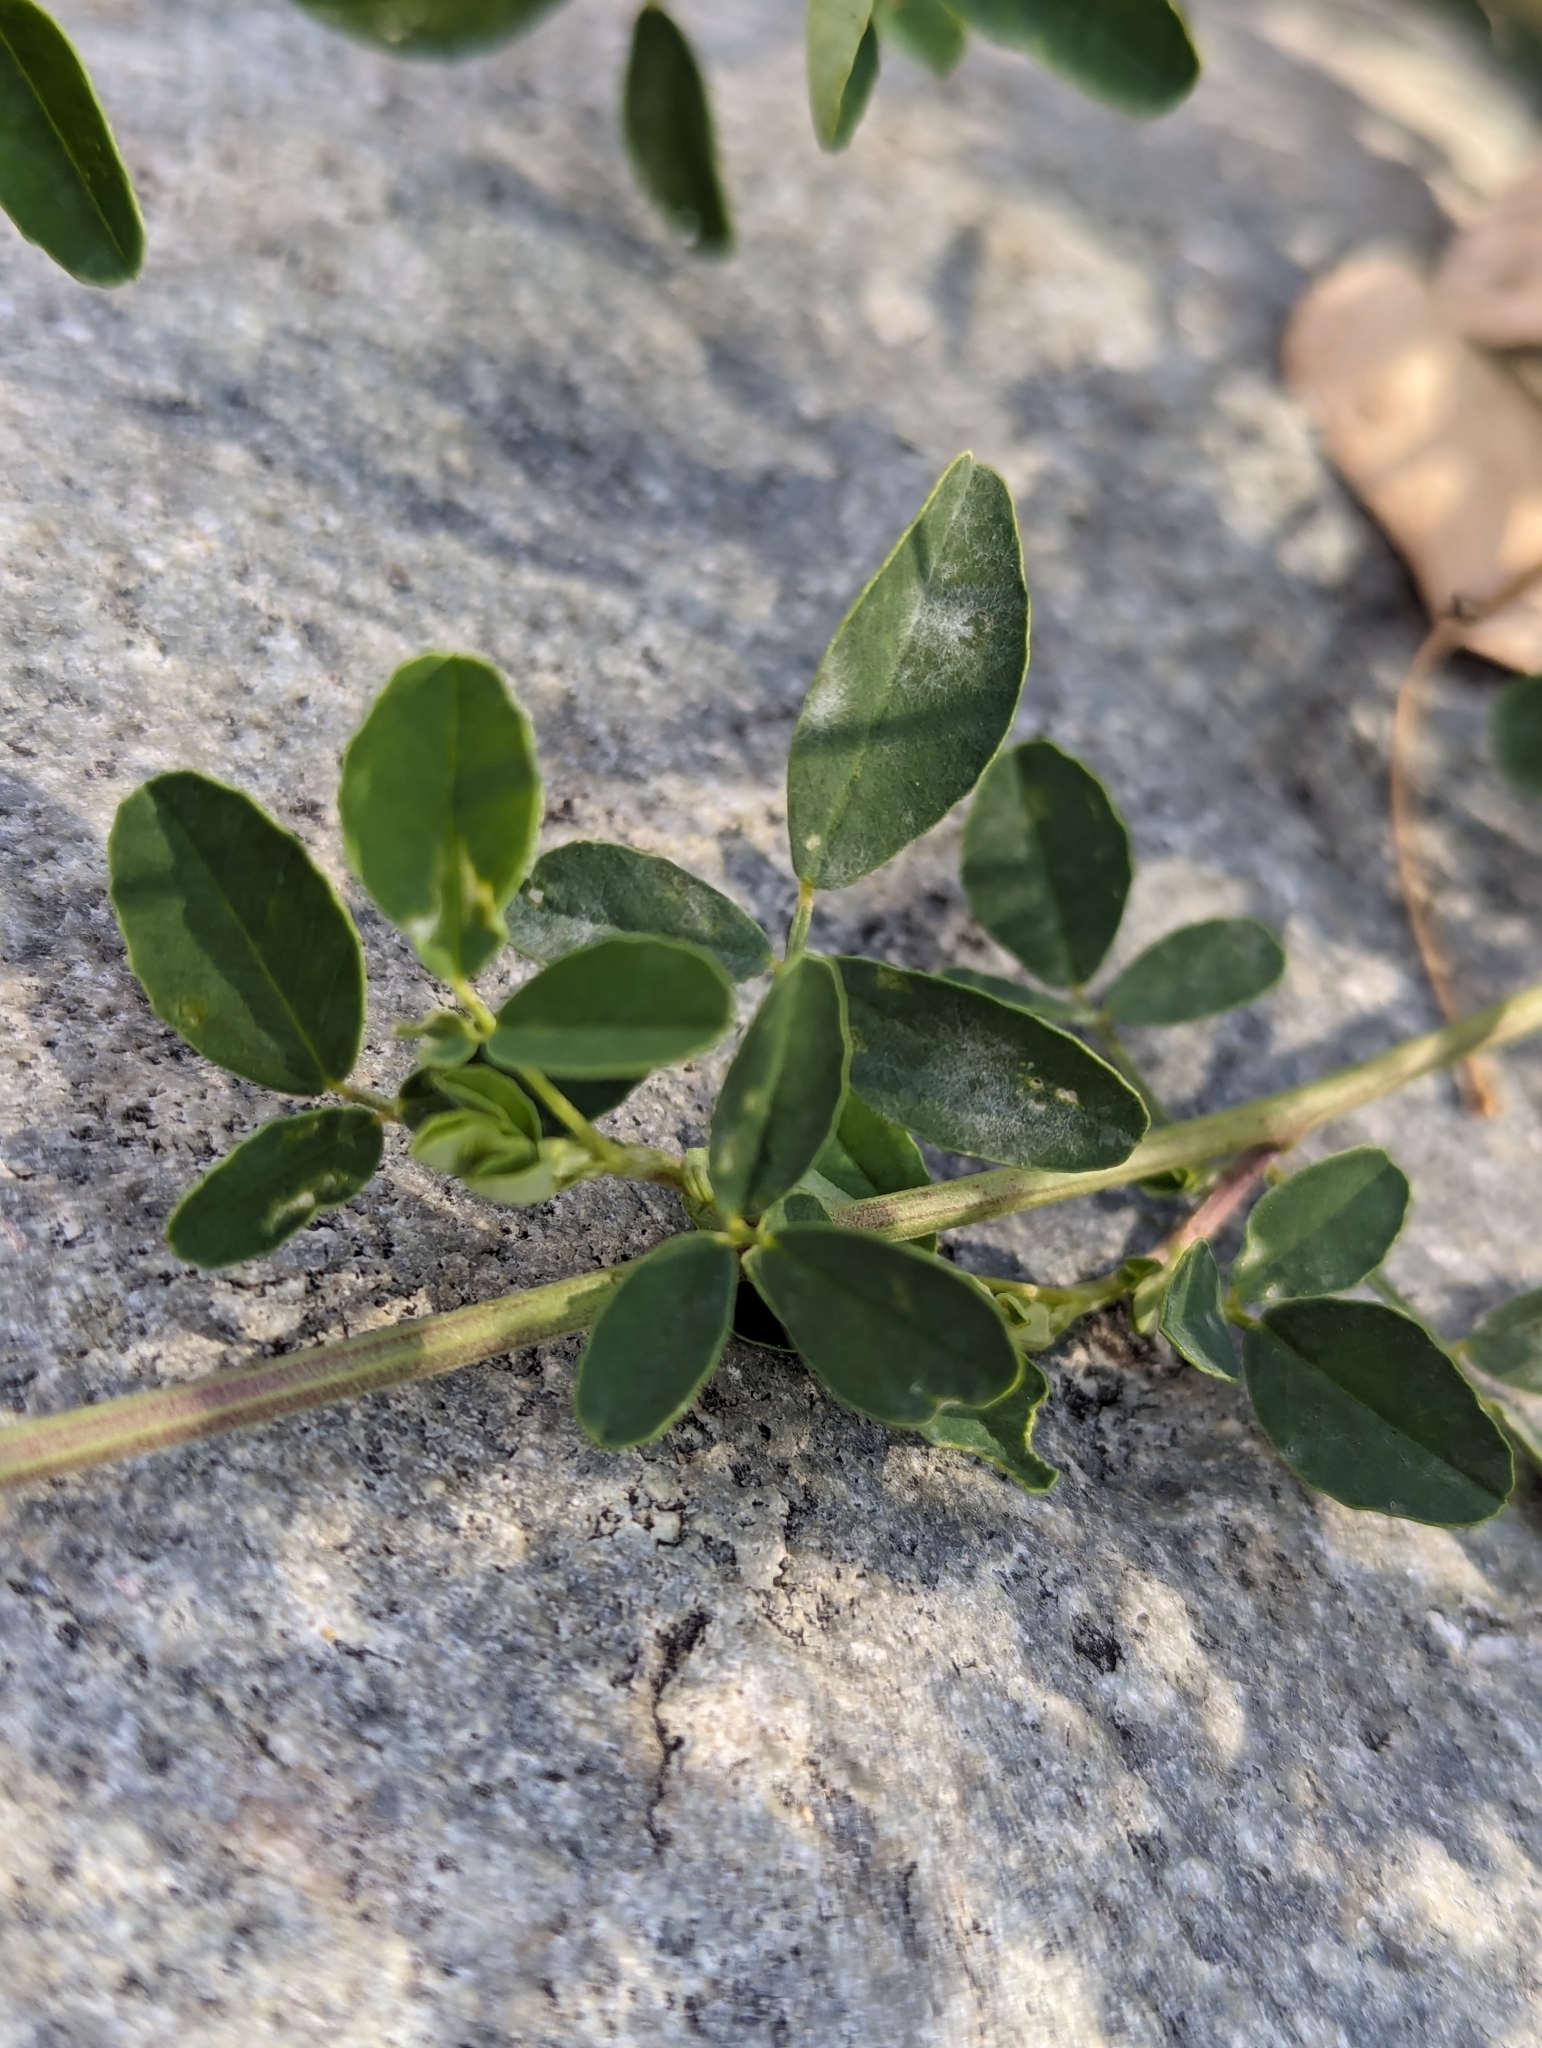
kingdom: Plantae
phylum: Tracheophyta
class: Magnoliopsida
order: Fabales
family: Fabaceae
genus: Melilotus
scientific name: Melilotus albus
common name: White melilot
